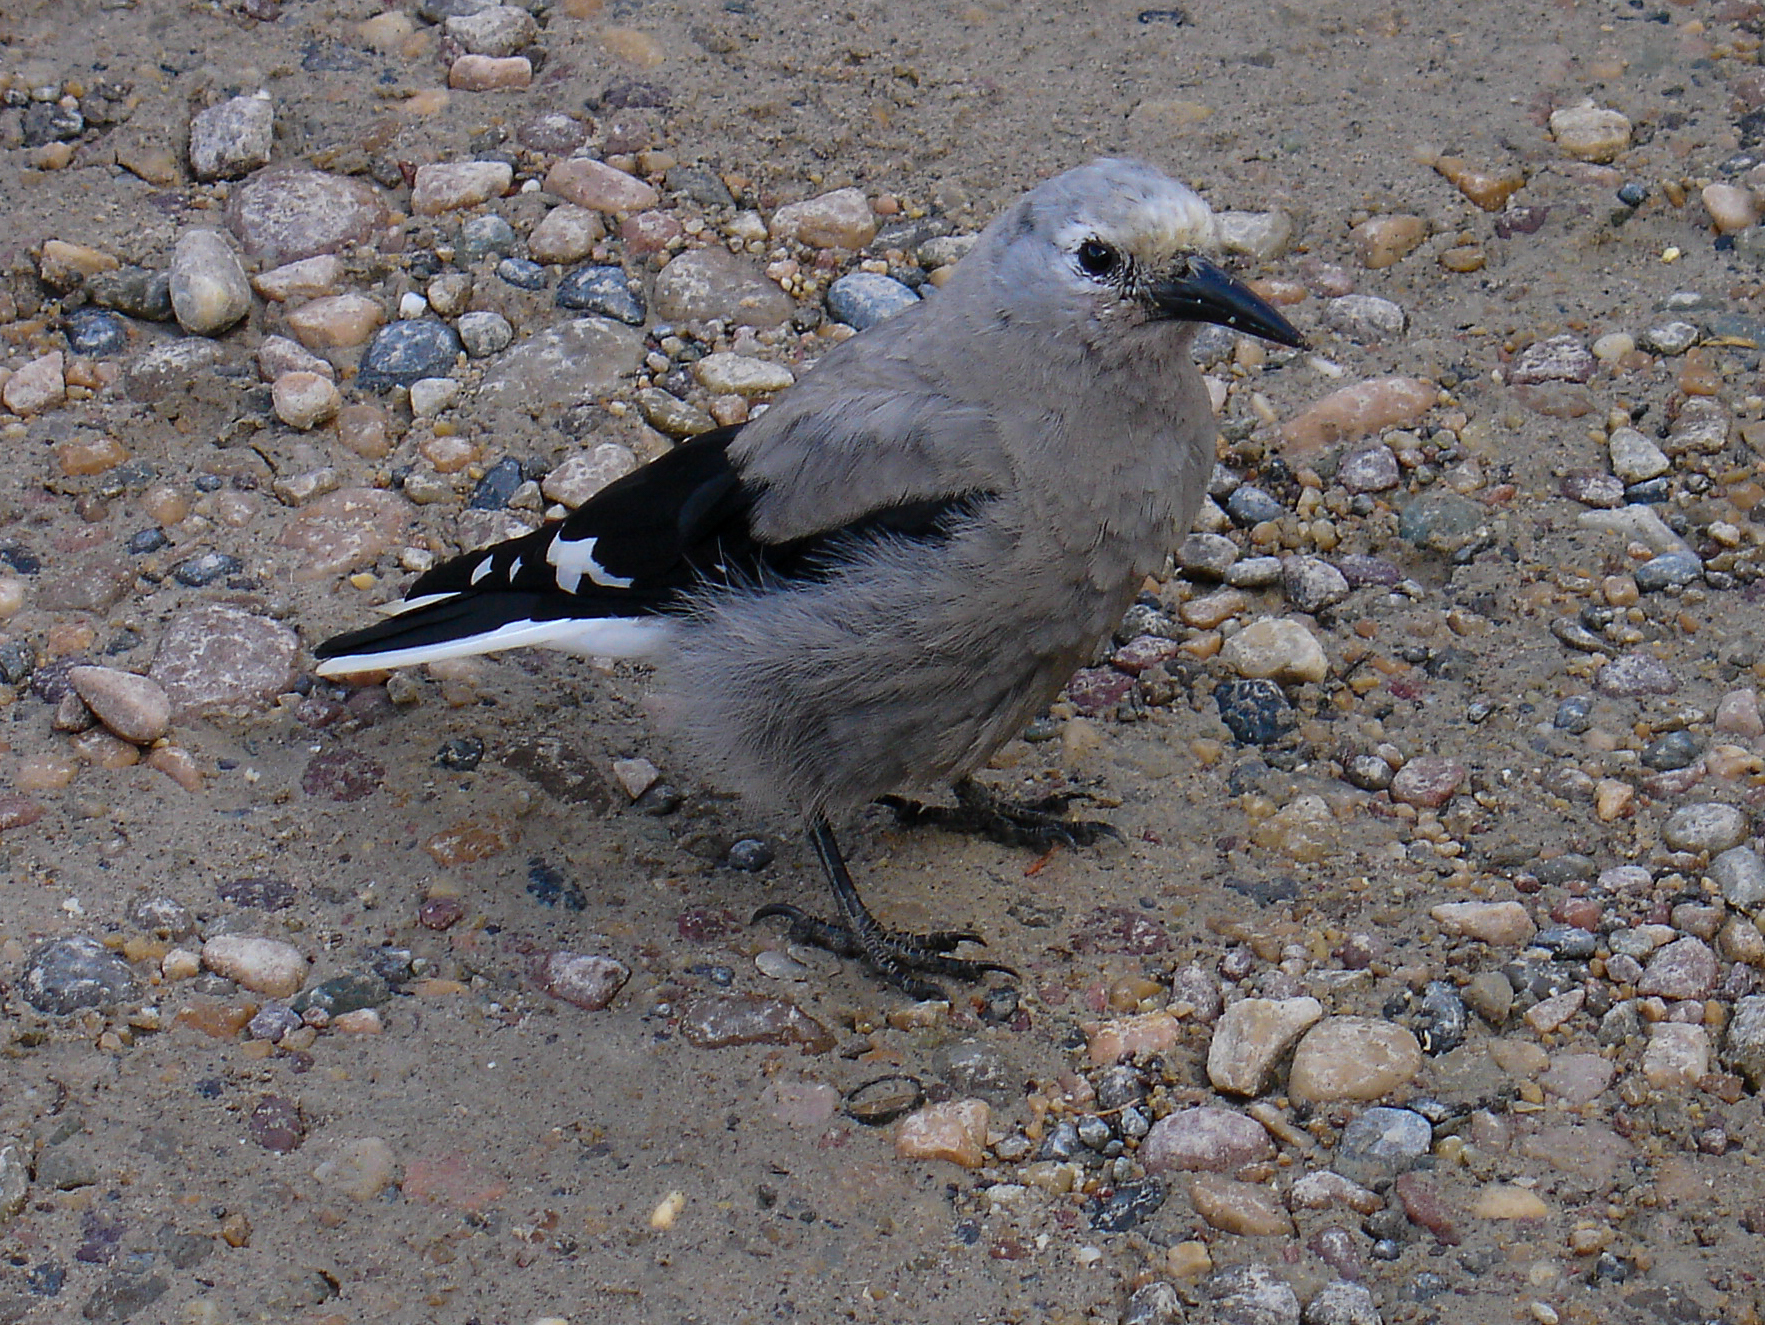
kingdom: Animalia
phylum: Chordata
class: Aves
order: Passeriformes
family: Corvidae
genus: Nucifraga
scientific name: Nucifraga columbiana
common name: Clark's nutcracker
